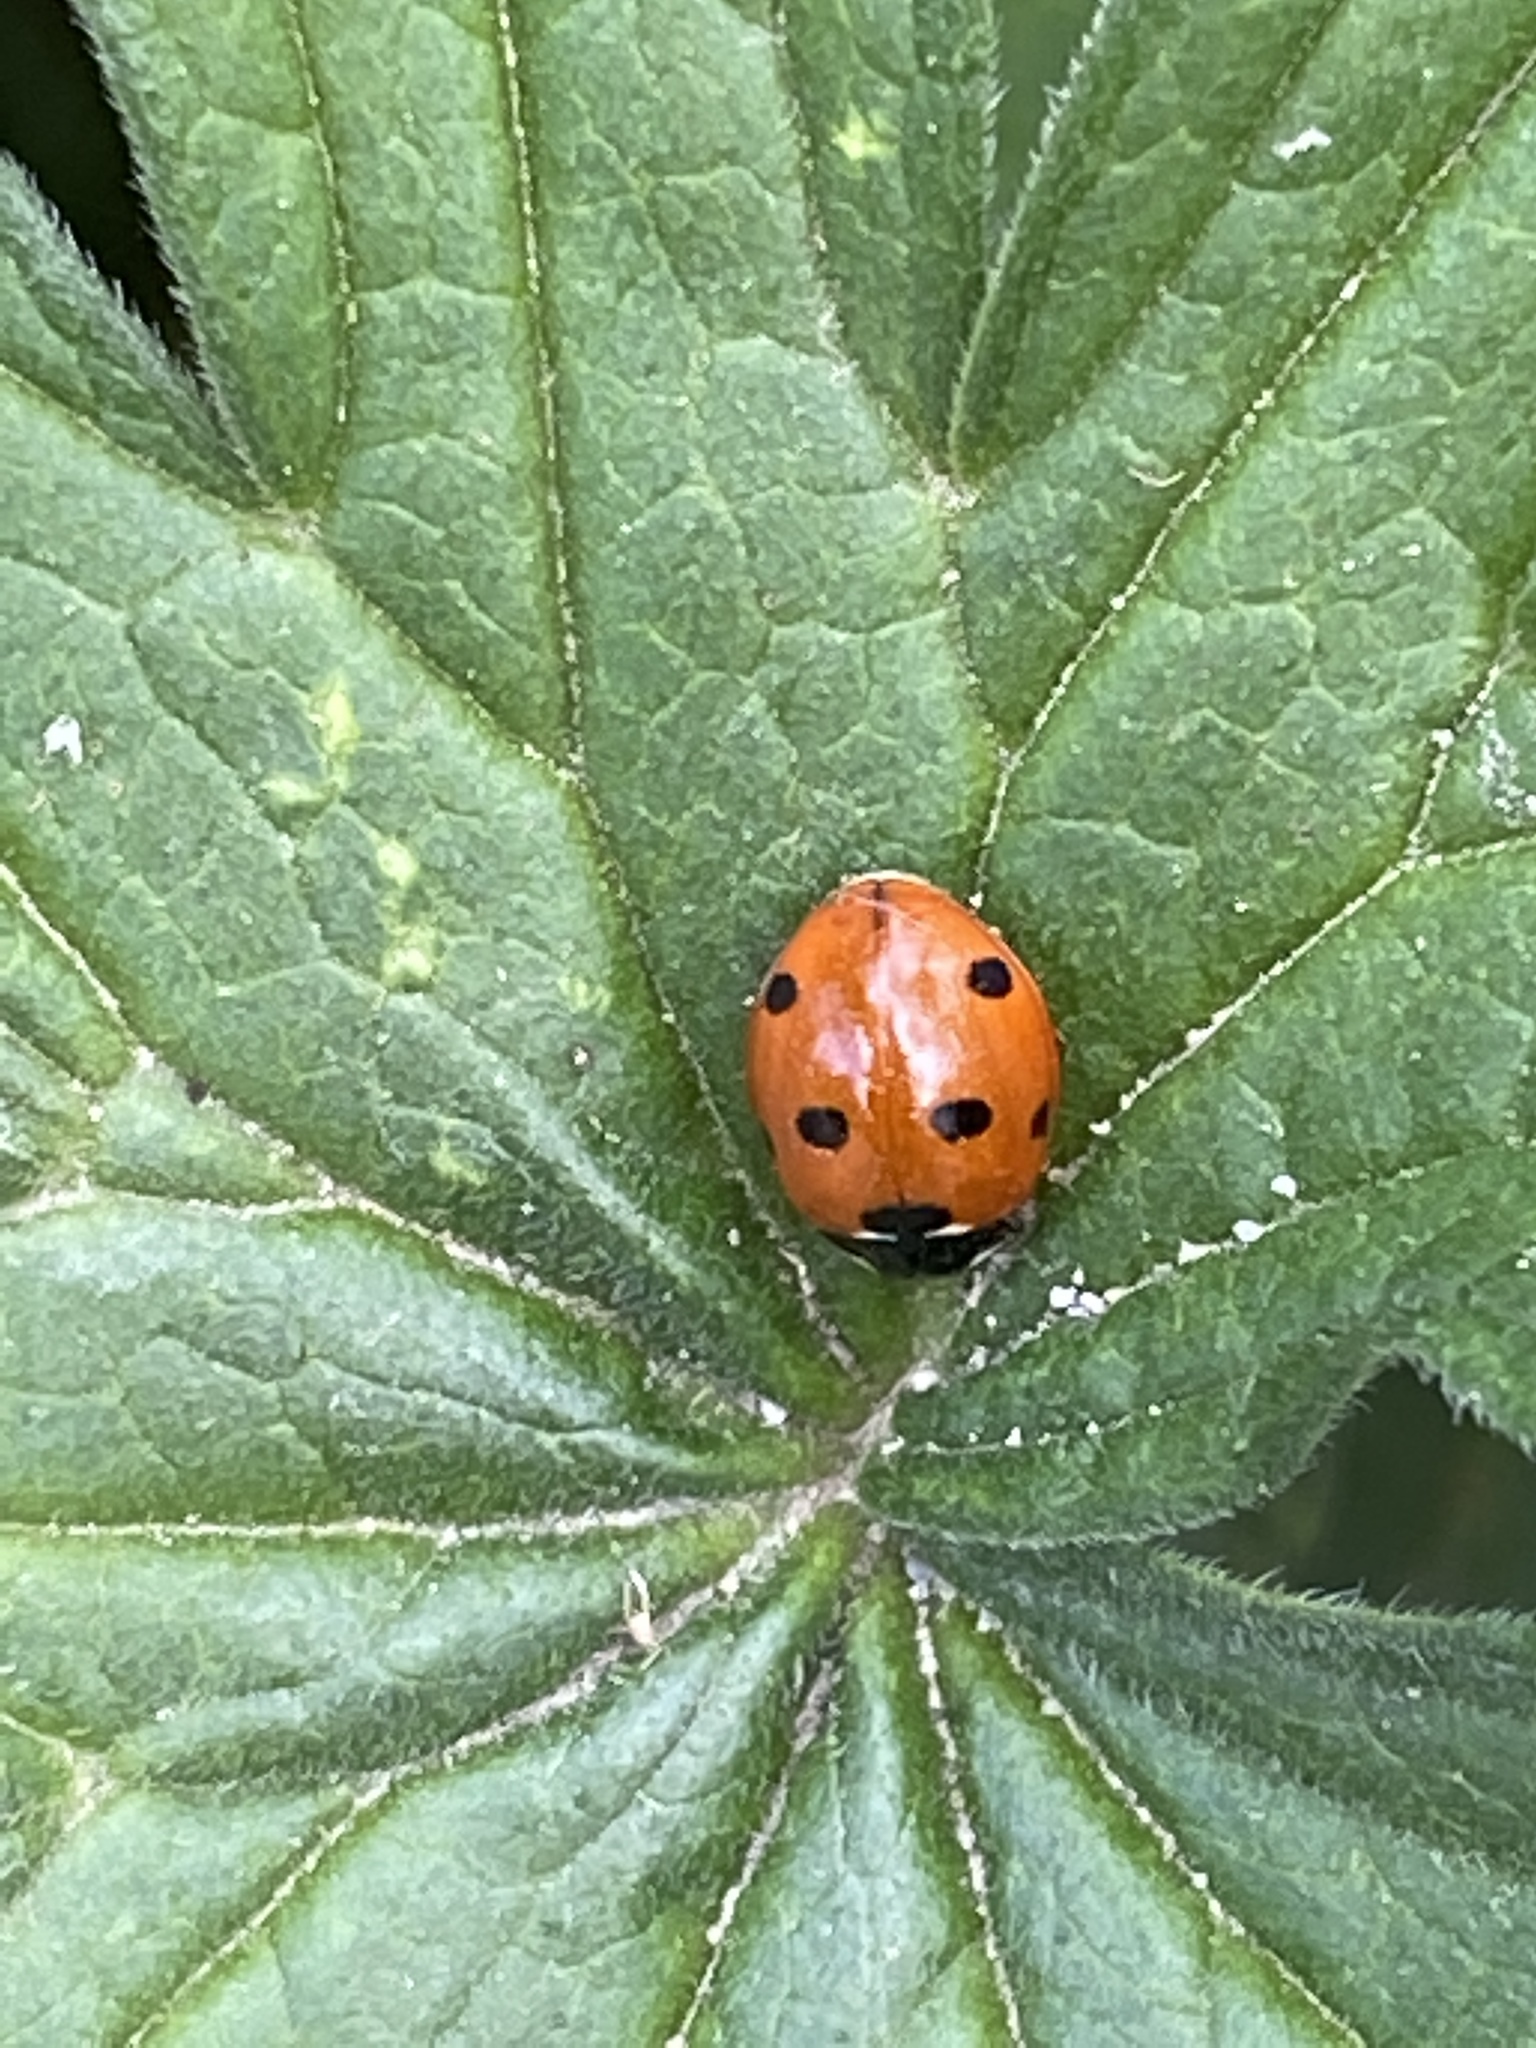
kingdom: Animalia
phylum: Arthropoda
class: Insecta
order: Coleoptera
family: Coccinellidae
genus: Coccinella
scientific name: Coccinella septempunctata
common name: Sevenspotted lady beetle
